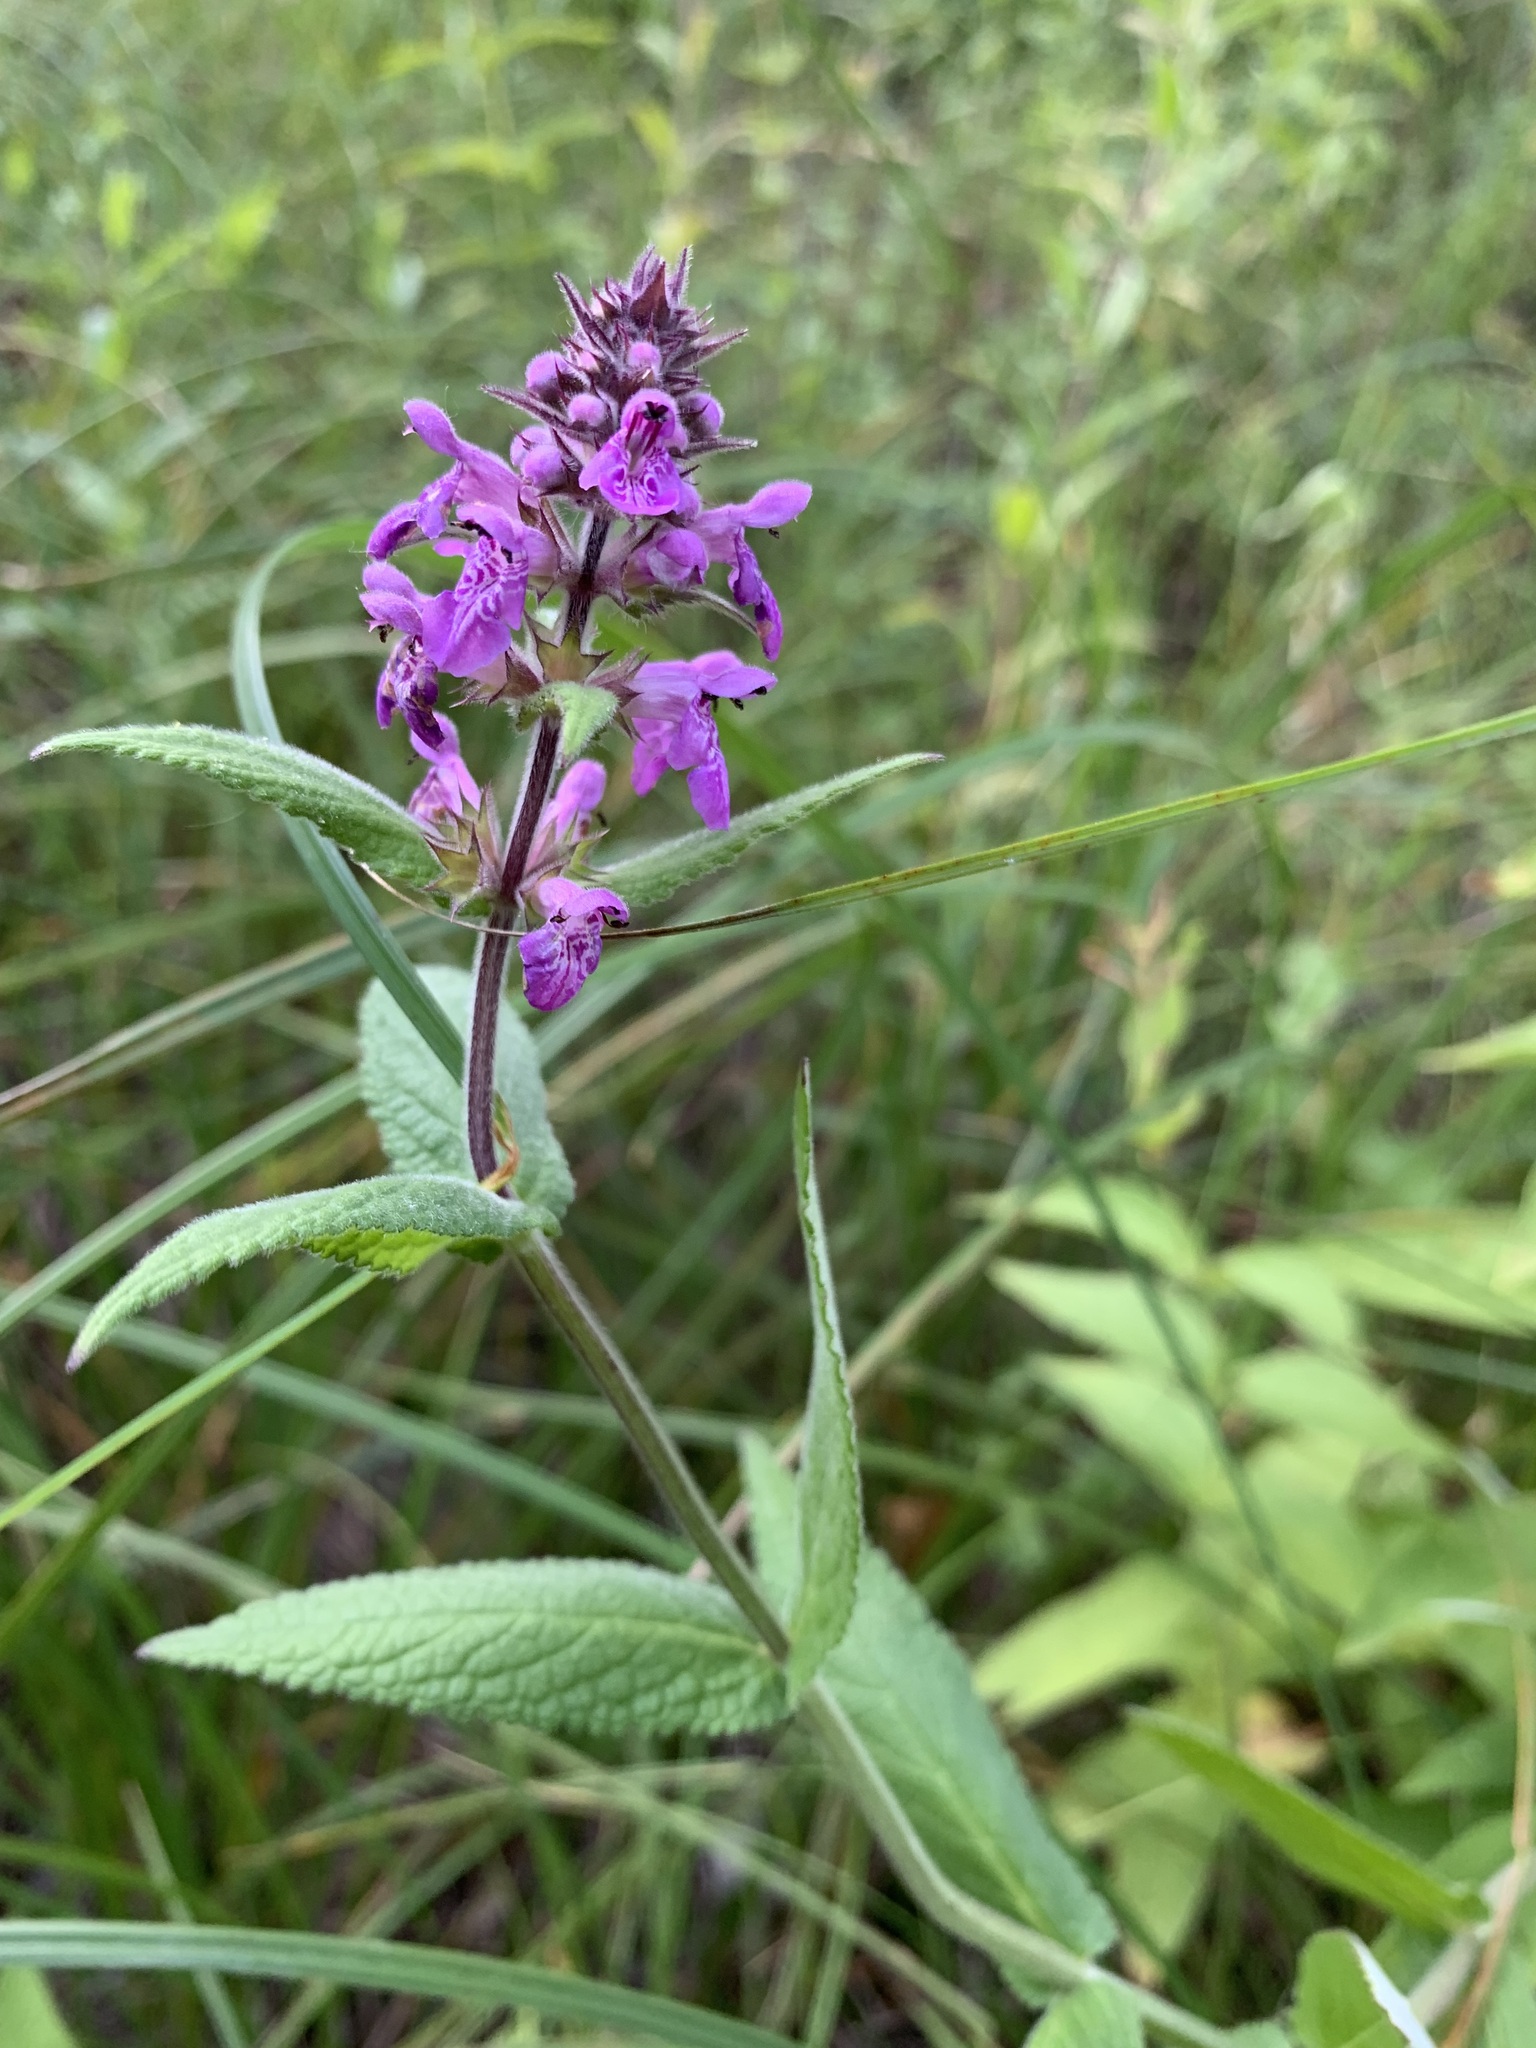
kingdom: Plantae
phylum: Tracheophyta
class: Magnoliopsida
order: Lamiales
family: Lamiaceae
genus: Stachys
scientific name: Stachys palustris
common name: Marsh woundwort
